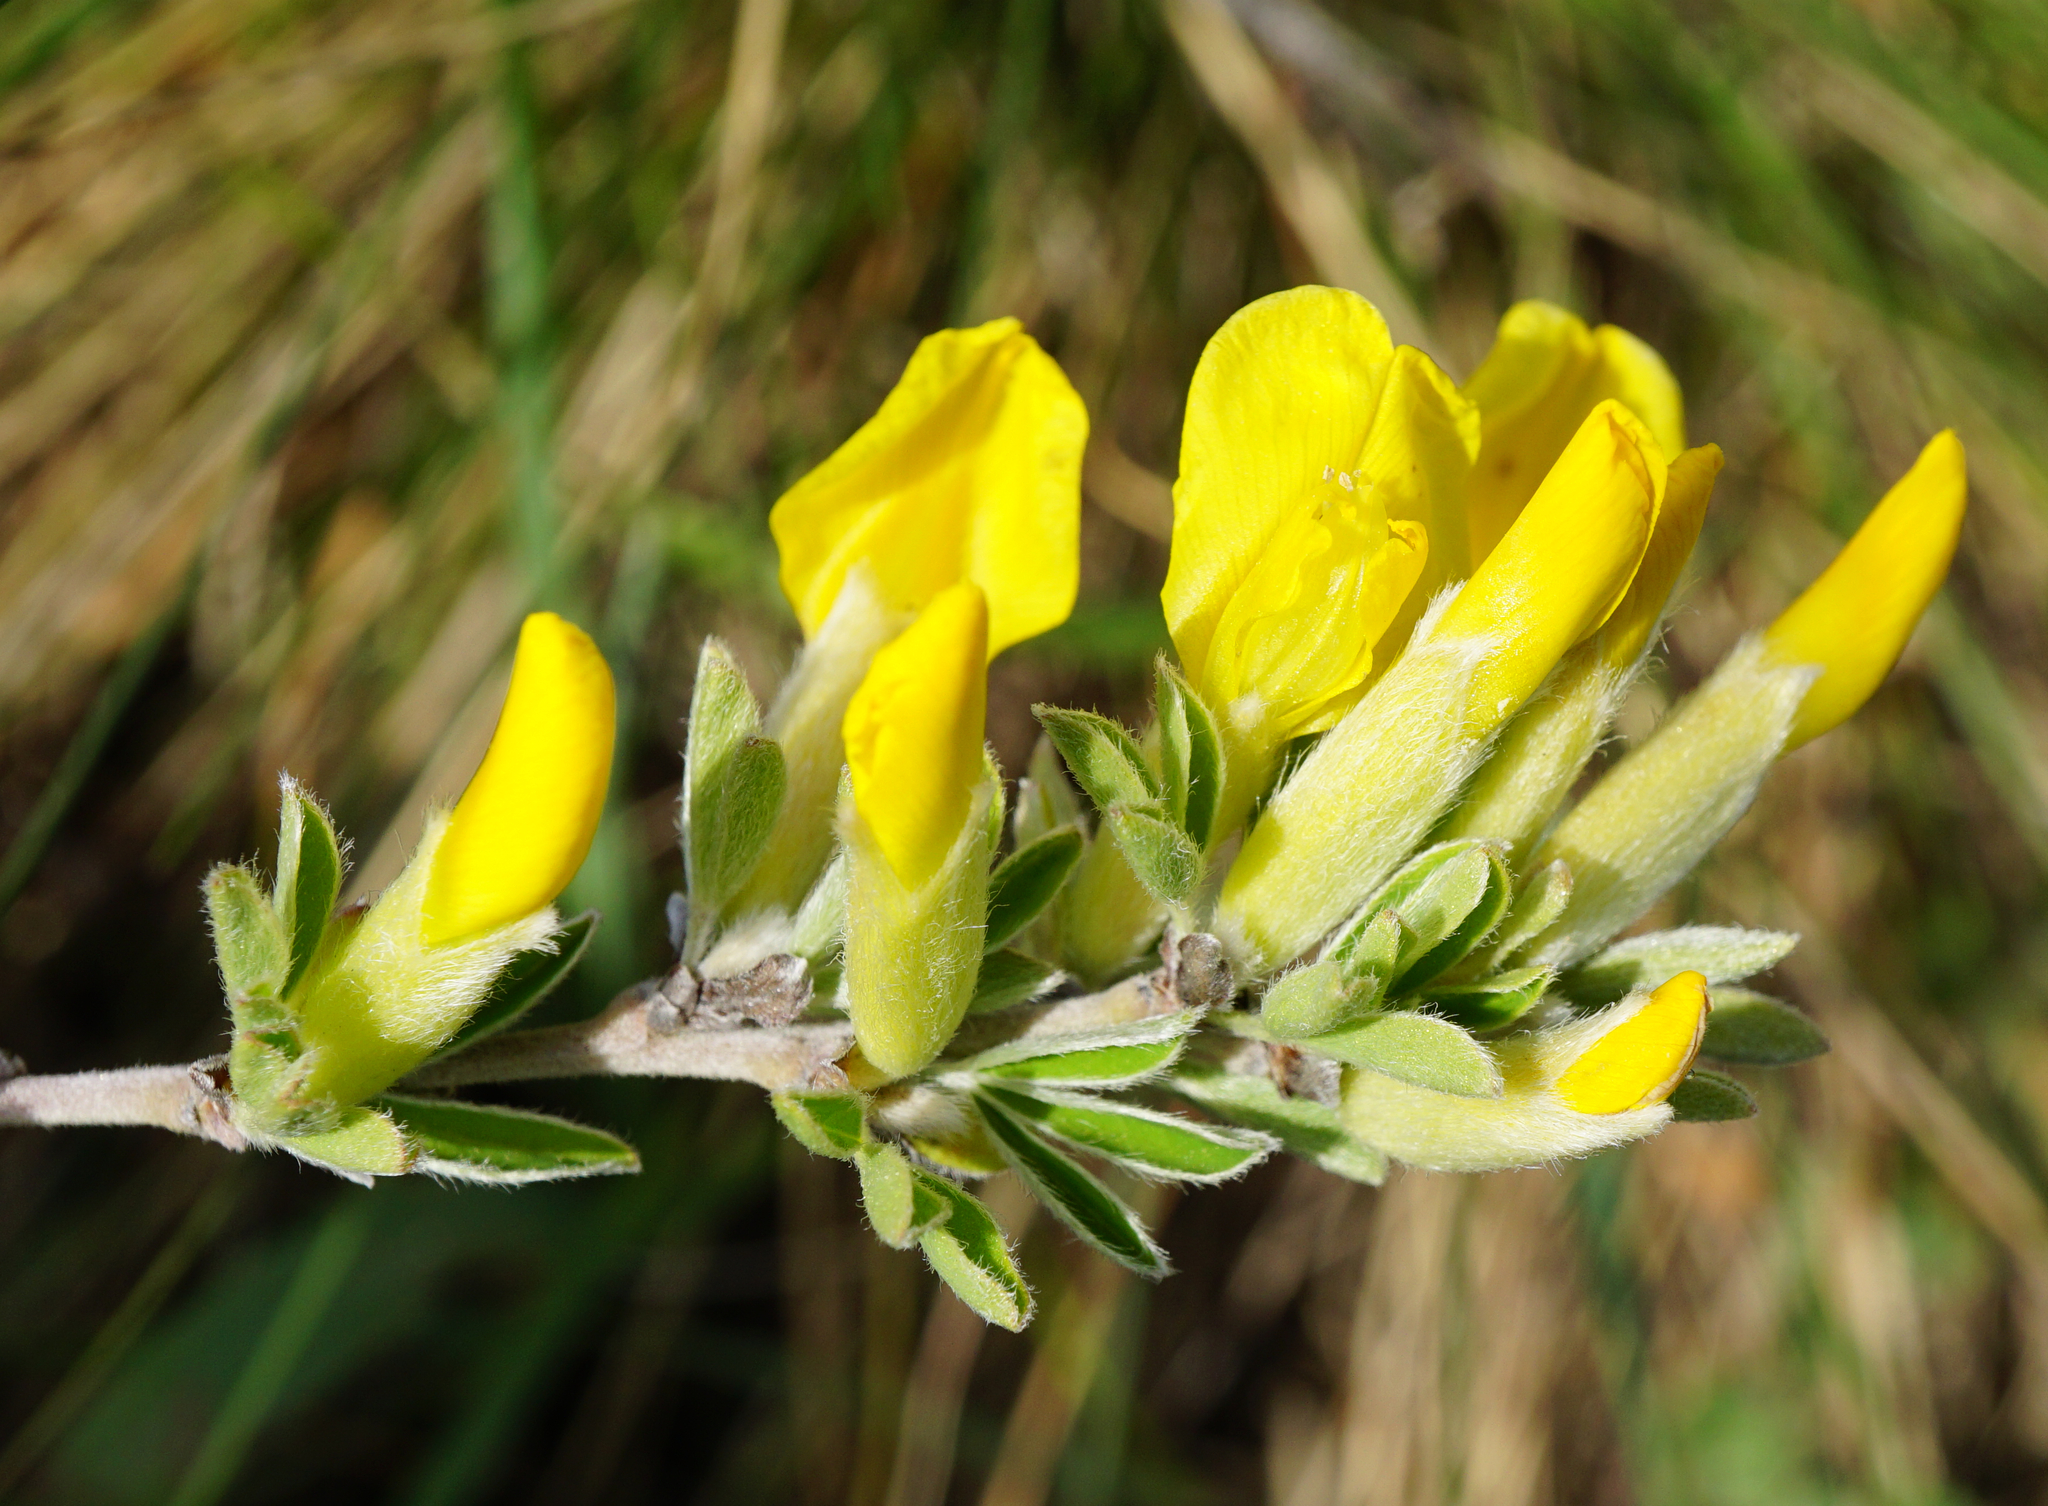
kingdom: Plantae
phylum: Tracheophyta
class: Magnoliopsida
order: Fabales
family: Fabaceae
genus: Chamaecytisus
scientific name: Chamaecytisus ratisbonensis
